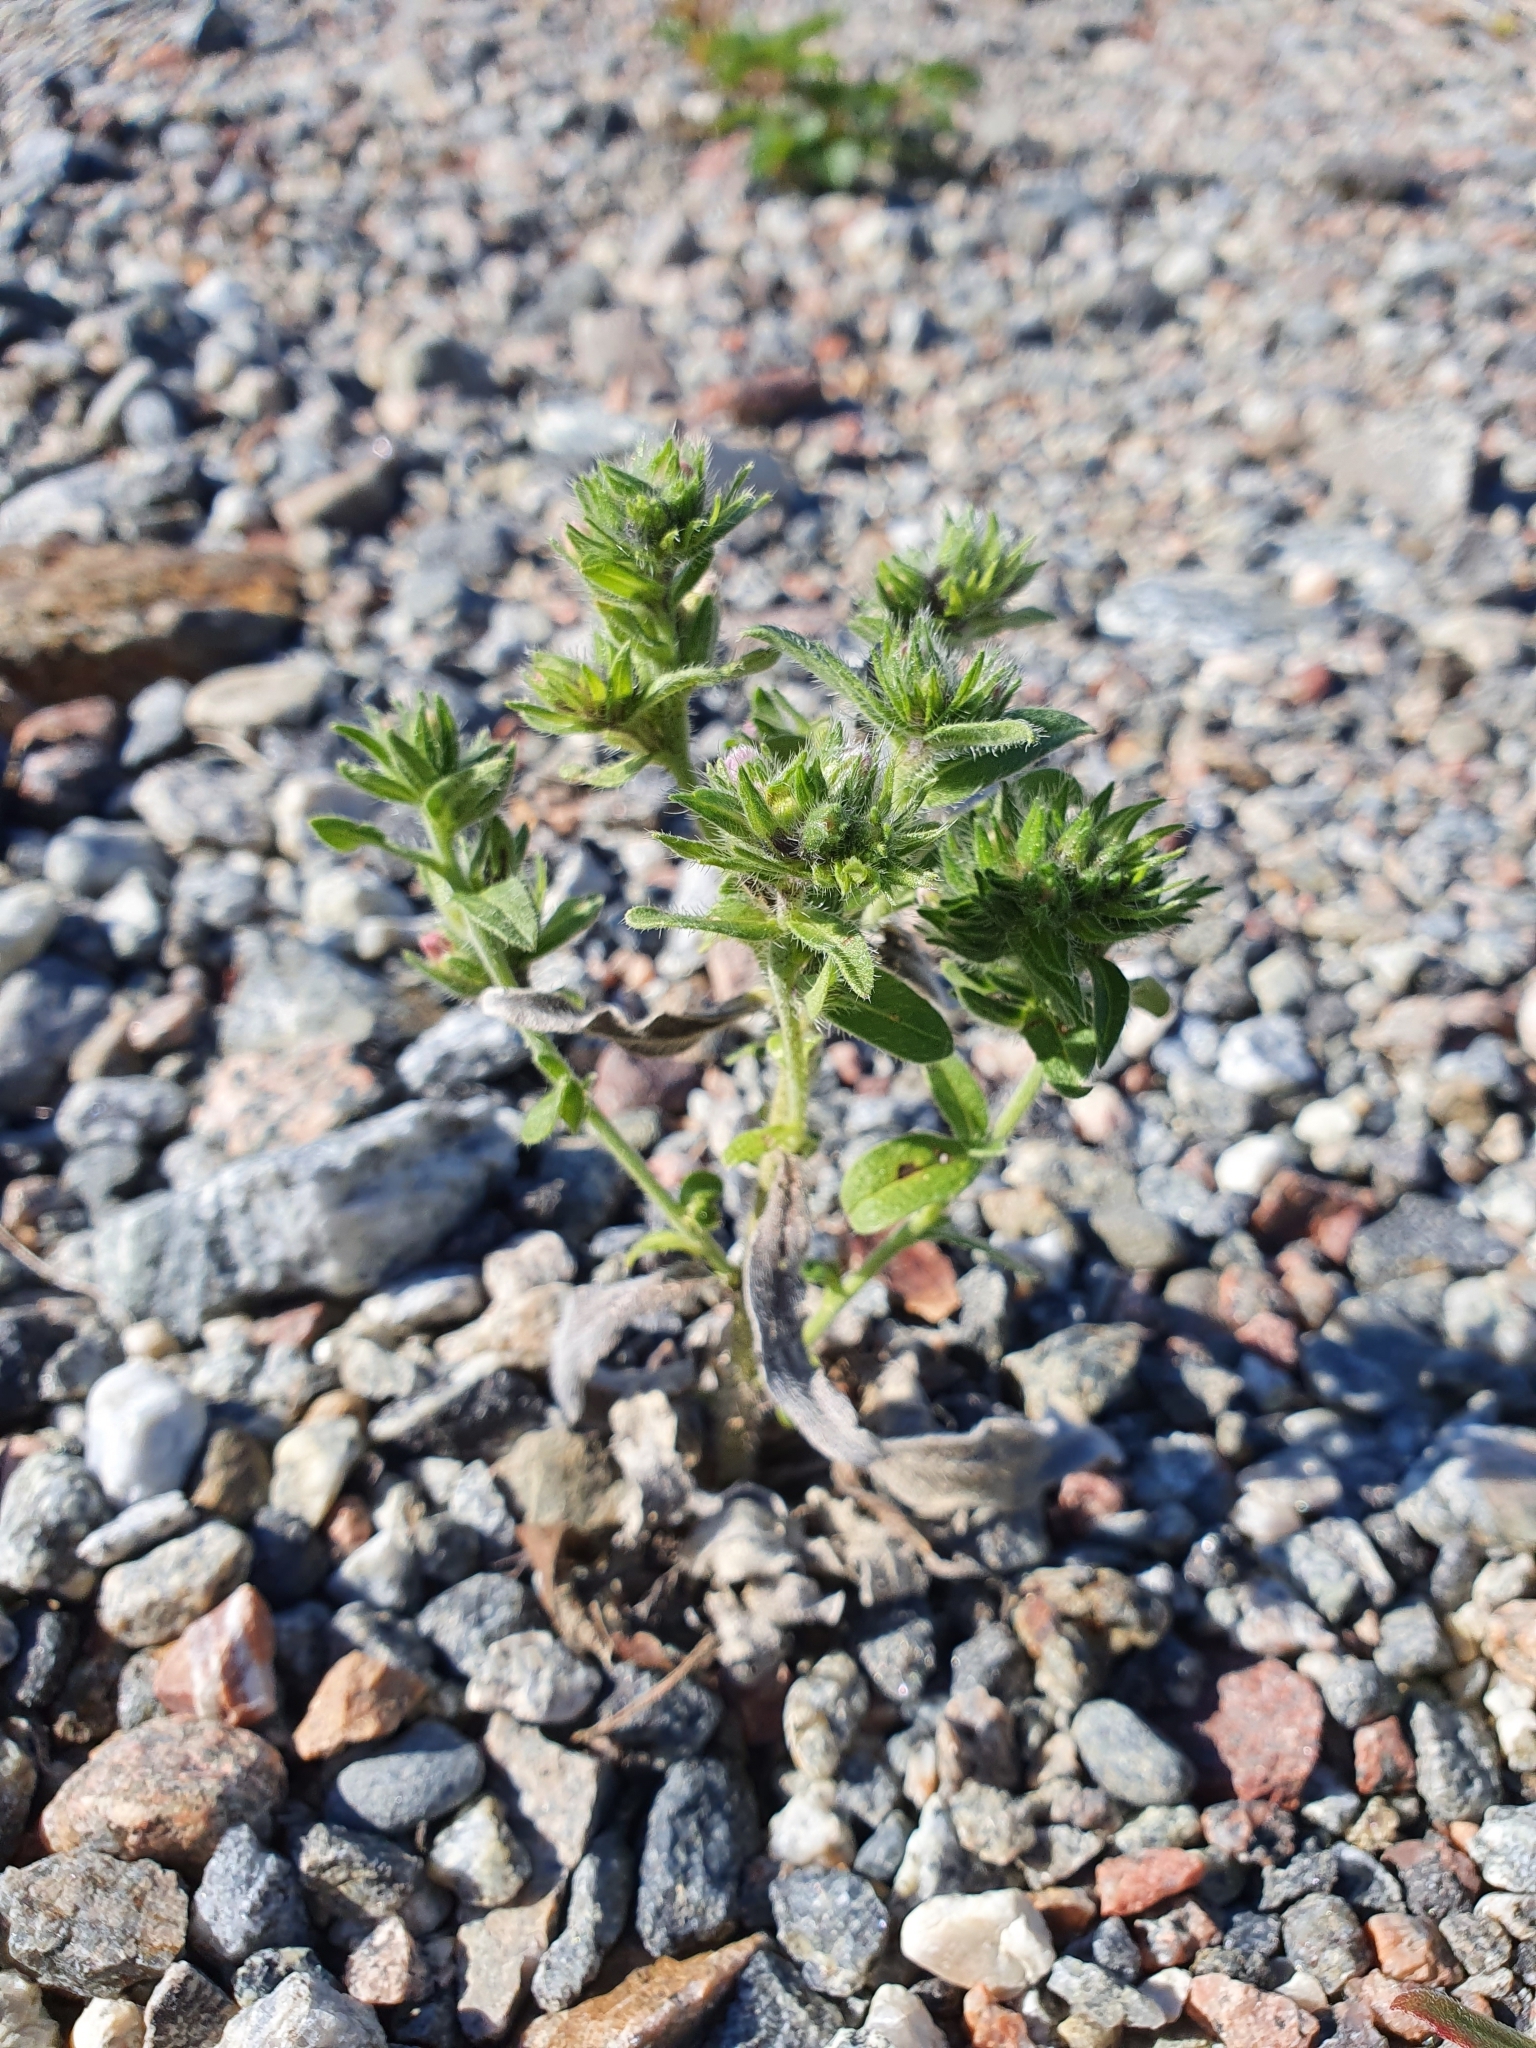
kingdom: Plantae
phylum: Tracheophyta
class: Magnoliopsida
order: Boraginales
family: Boraginaceae
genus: Echium
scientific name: Echium vulgare
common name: Common viper's bugloss
